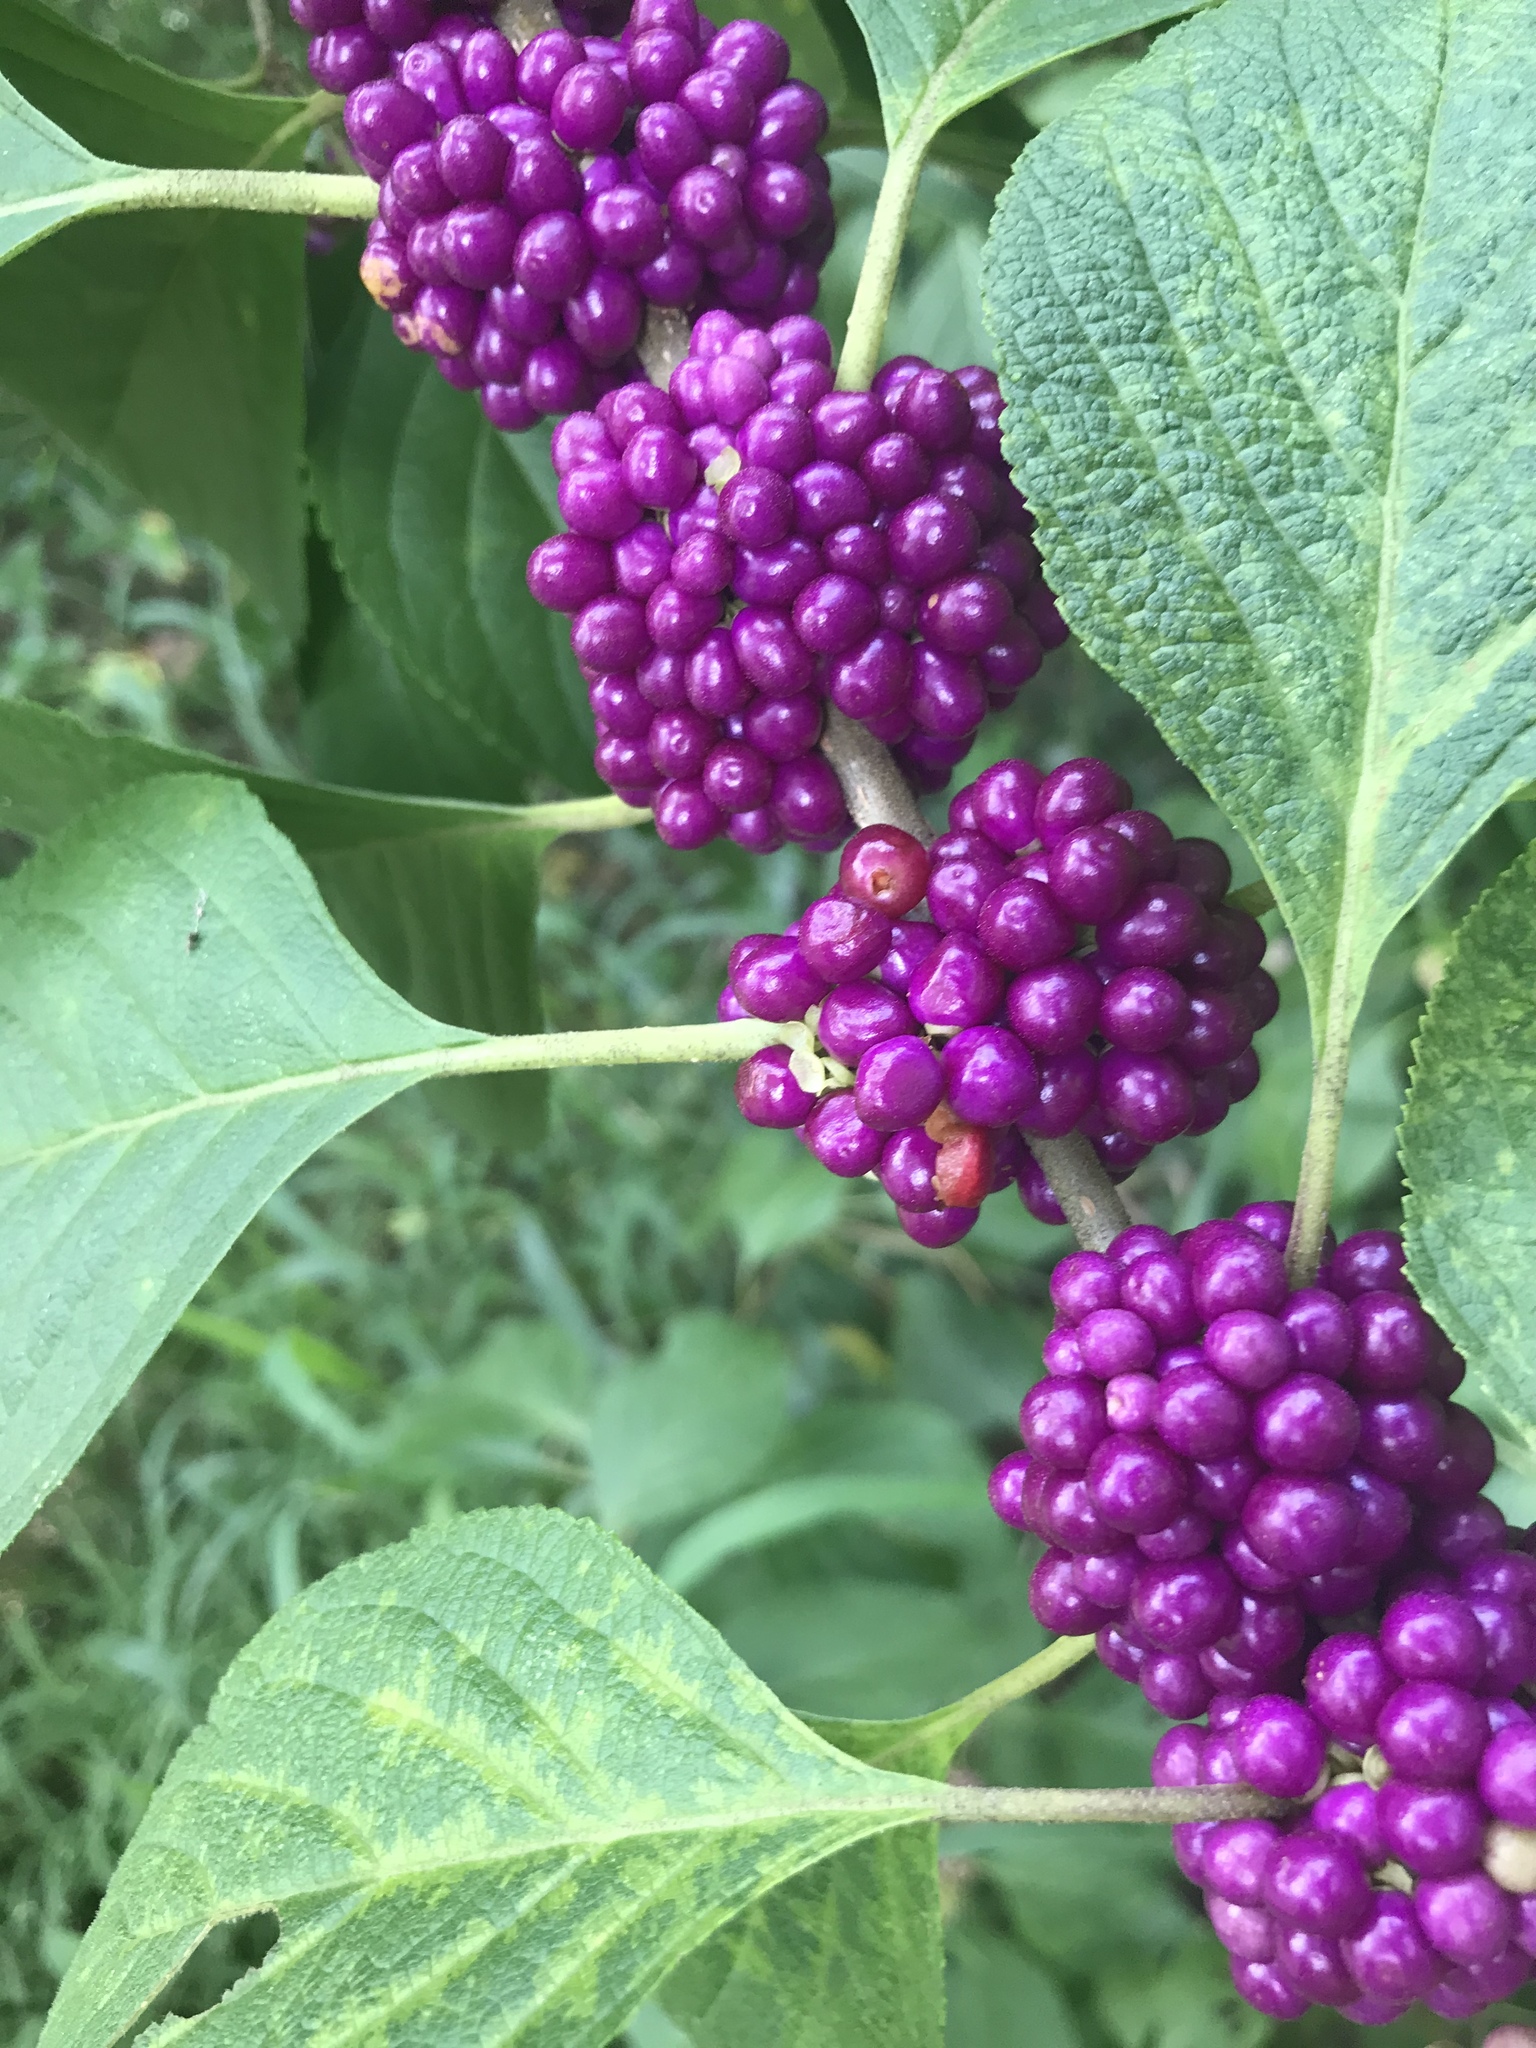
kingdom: Plantae
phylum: Tracheophyta
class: Magnoliopsida
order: Lamiales
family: Lamiaceae
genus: Callicarpa
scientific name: Callicarpa americana
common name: American beautyberry
